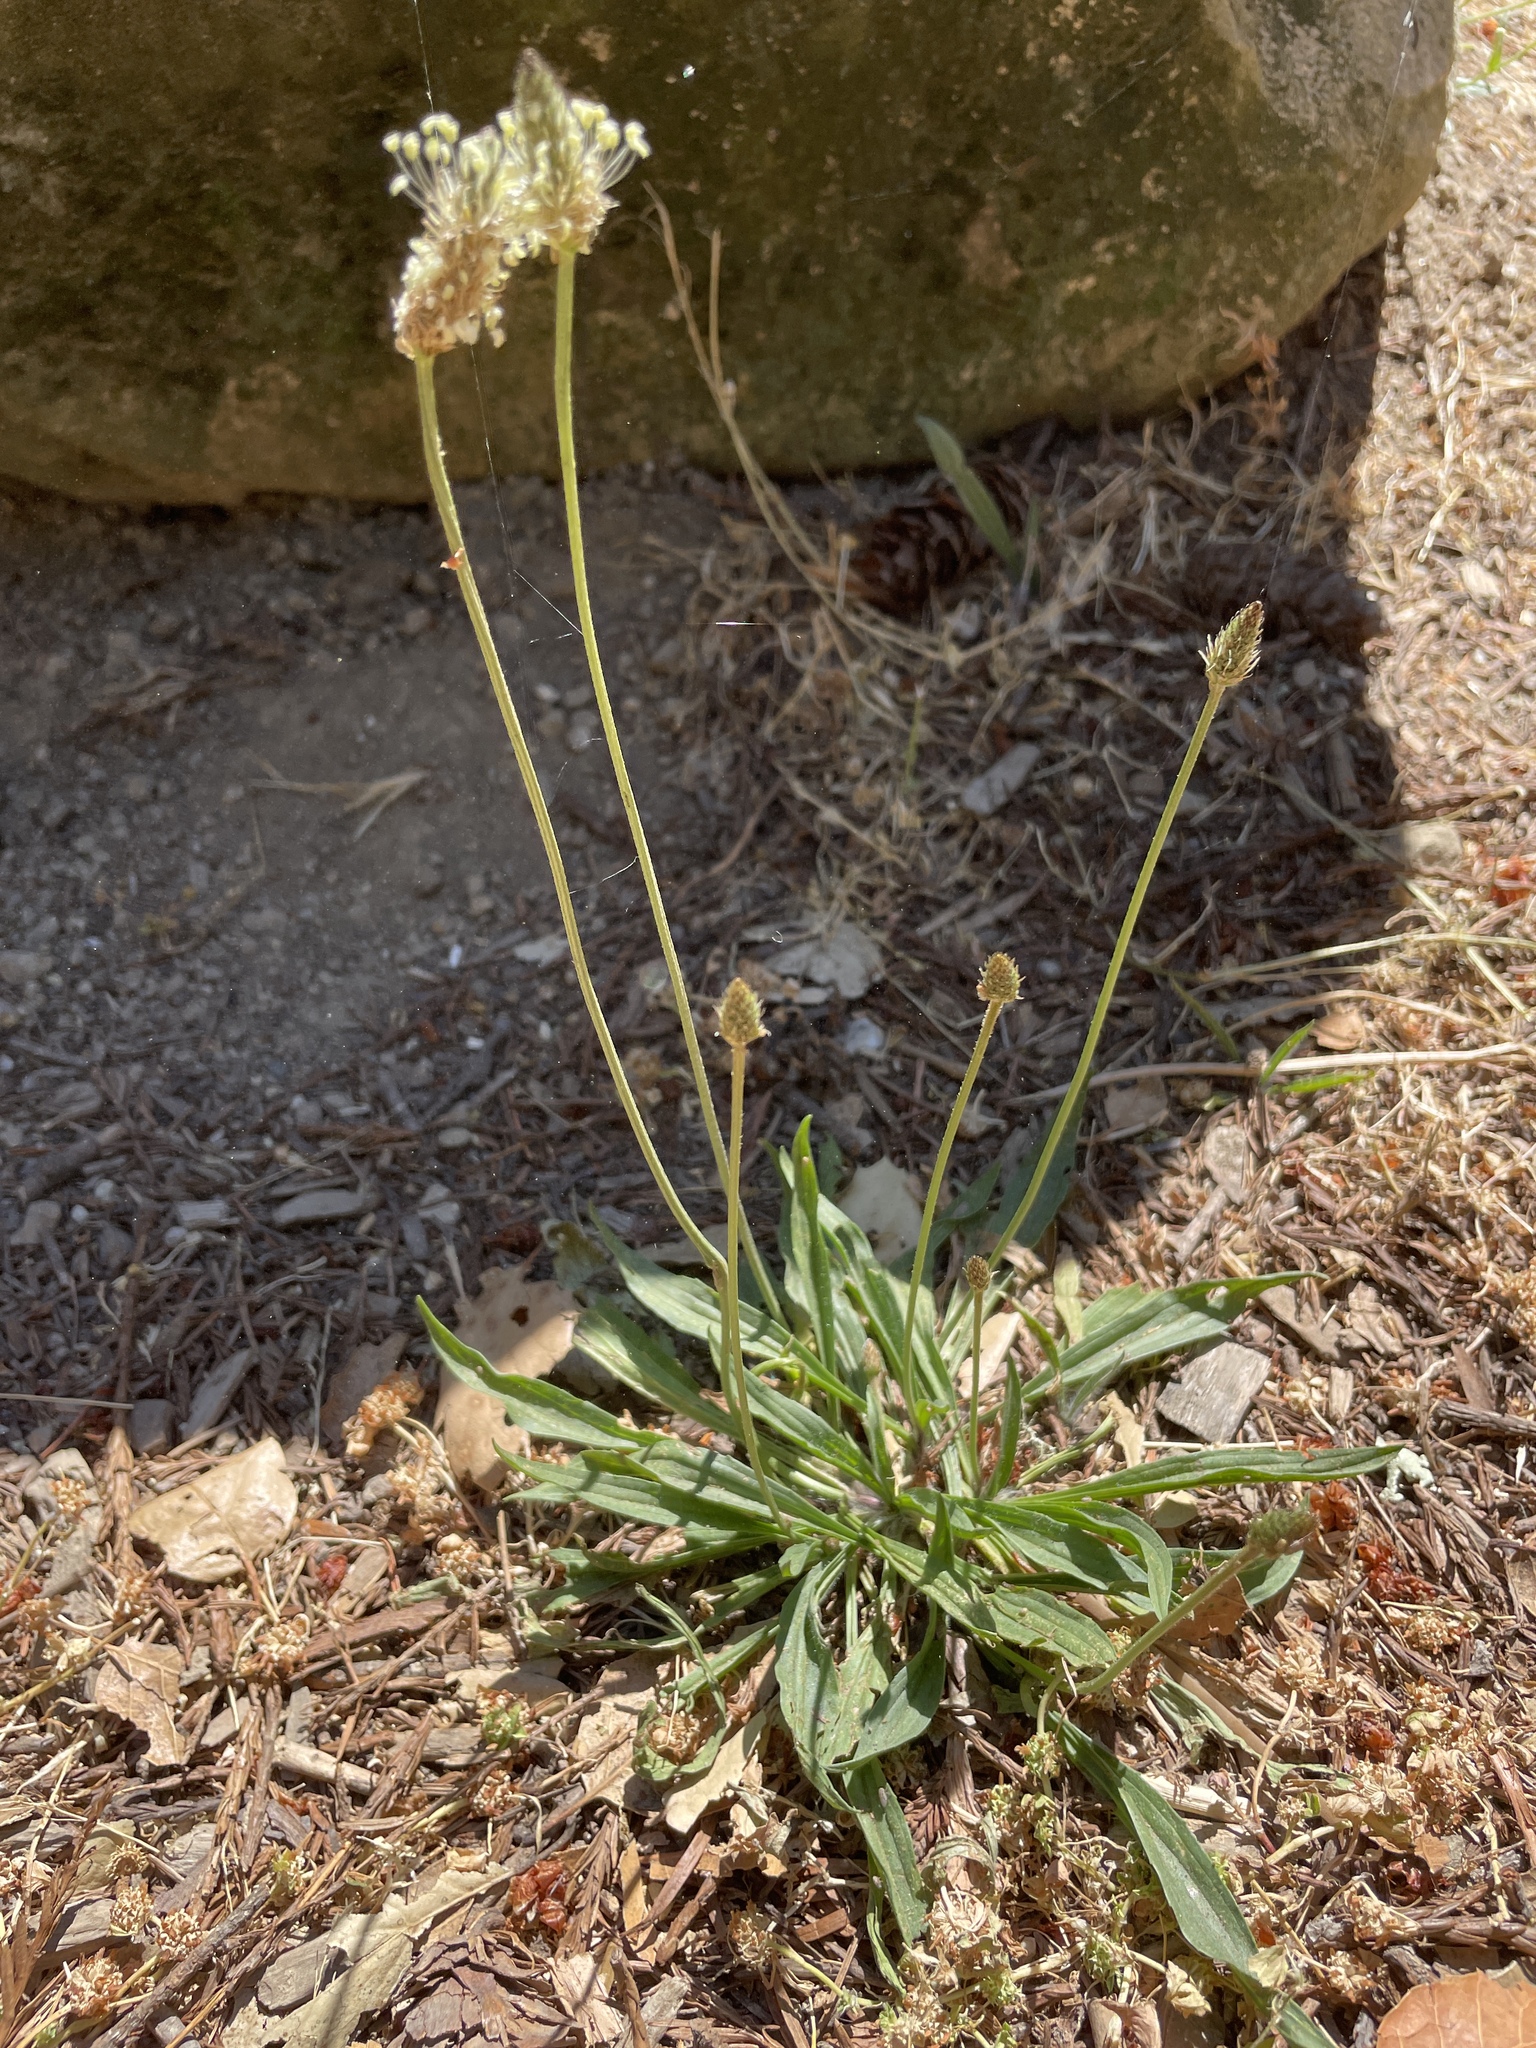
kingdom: Plantae
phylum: Tracheophyta
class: Magnoliopsida
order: Lamiales
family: Plantaginaceae
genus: Plantago
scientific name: Plantago lanceolata
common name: Ribwort plantain
